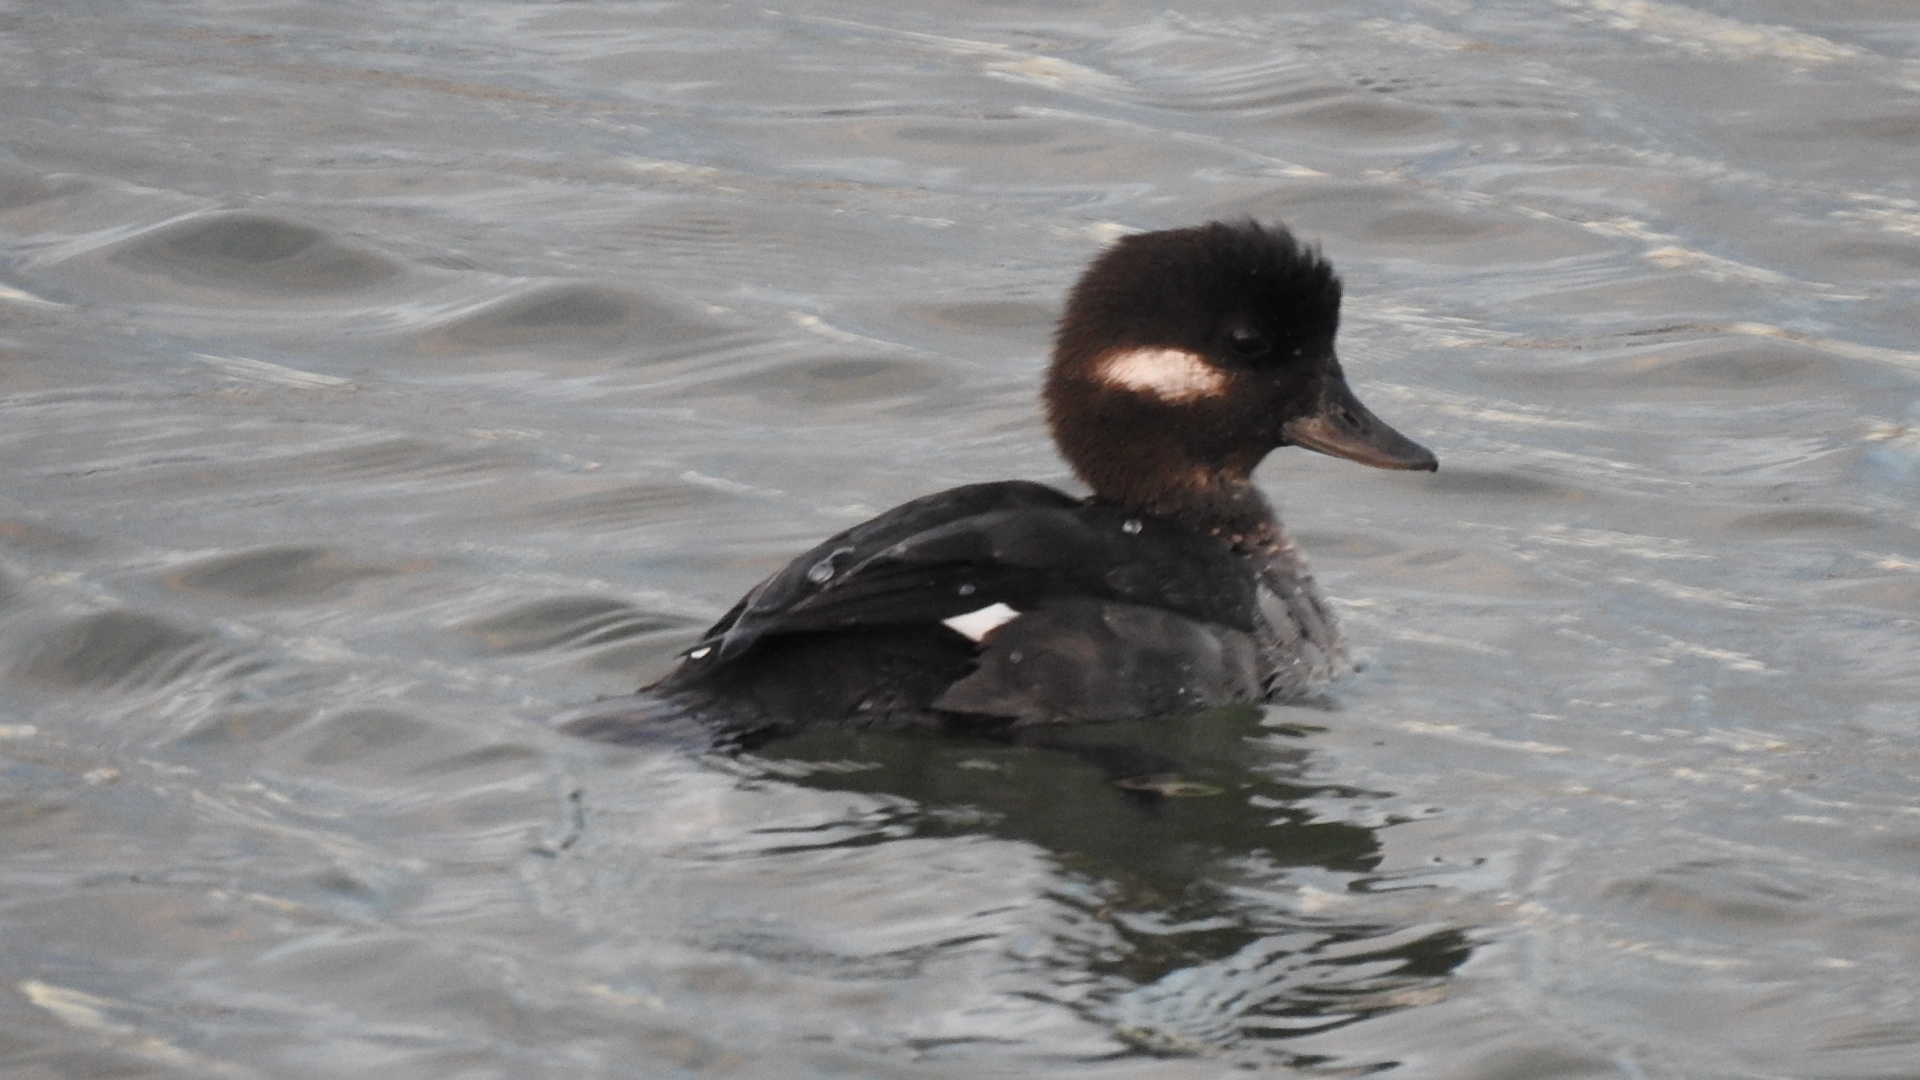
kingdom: Animalia
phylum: Chordata
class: Aves
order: Anseriformes
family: Anatidae
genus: Bucephala
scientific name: Bucephala albeola
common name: Bufflehead
